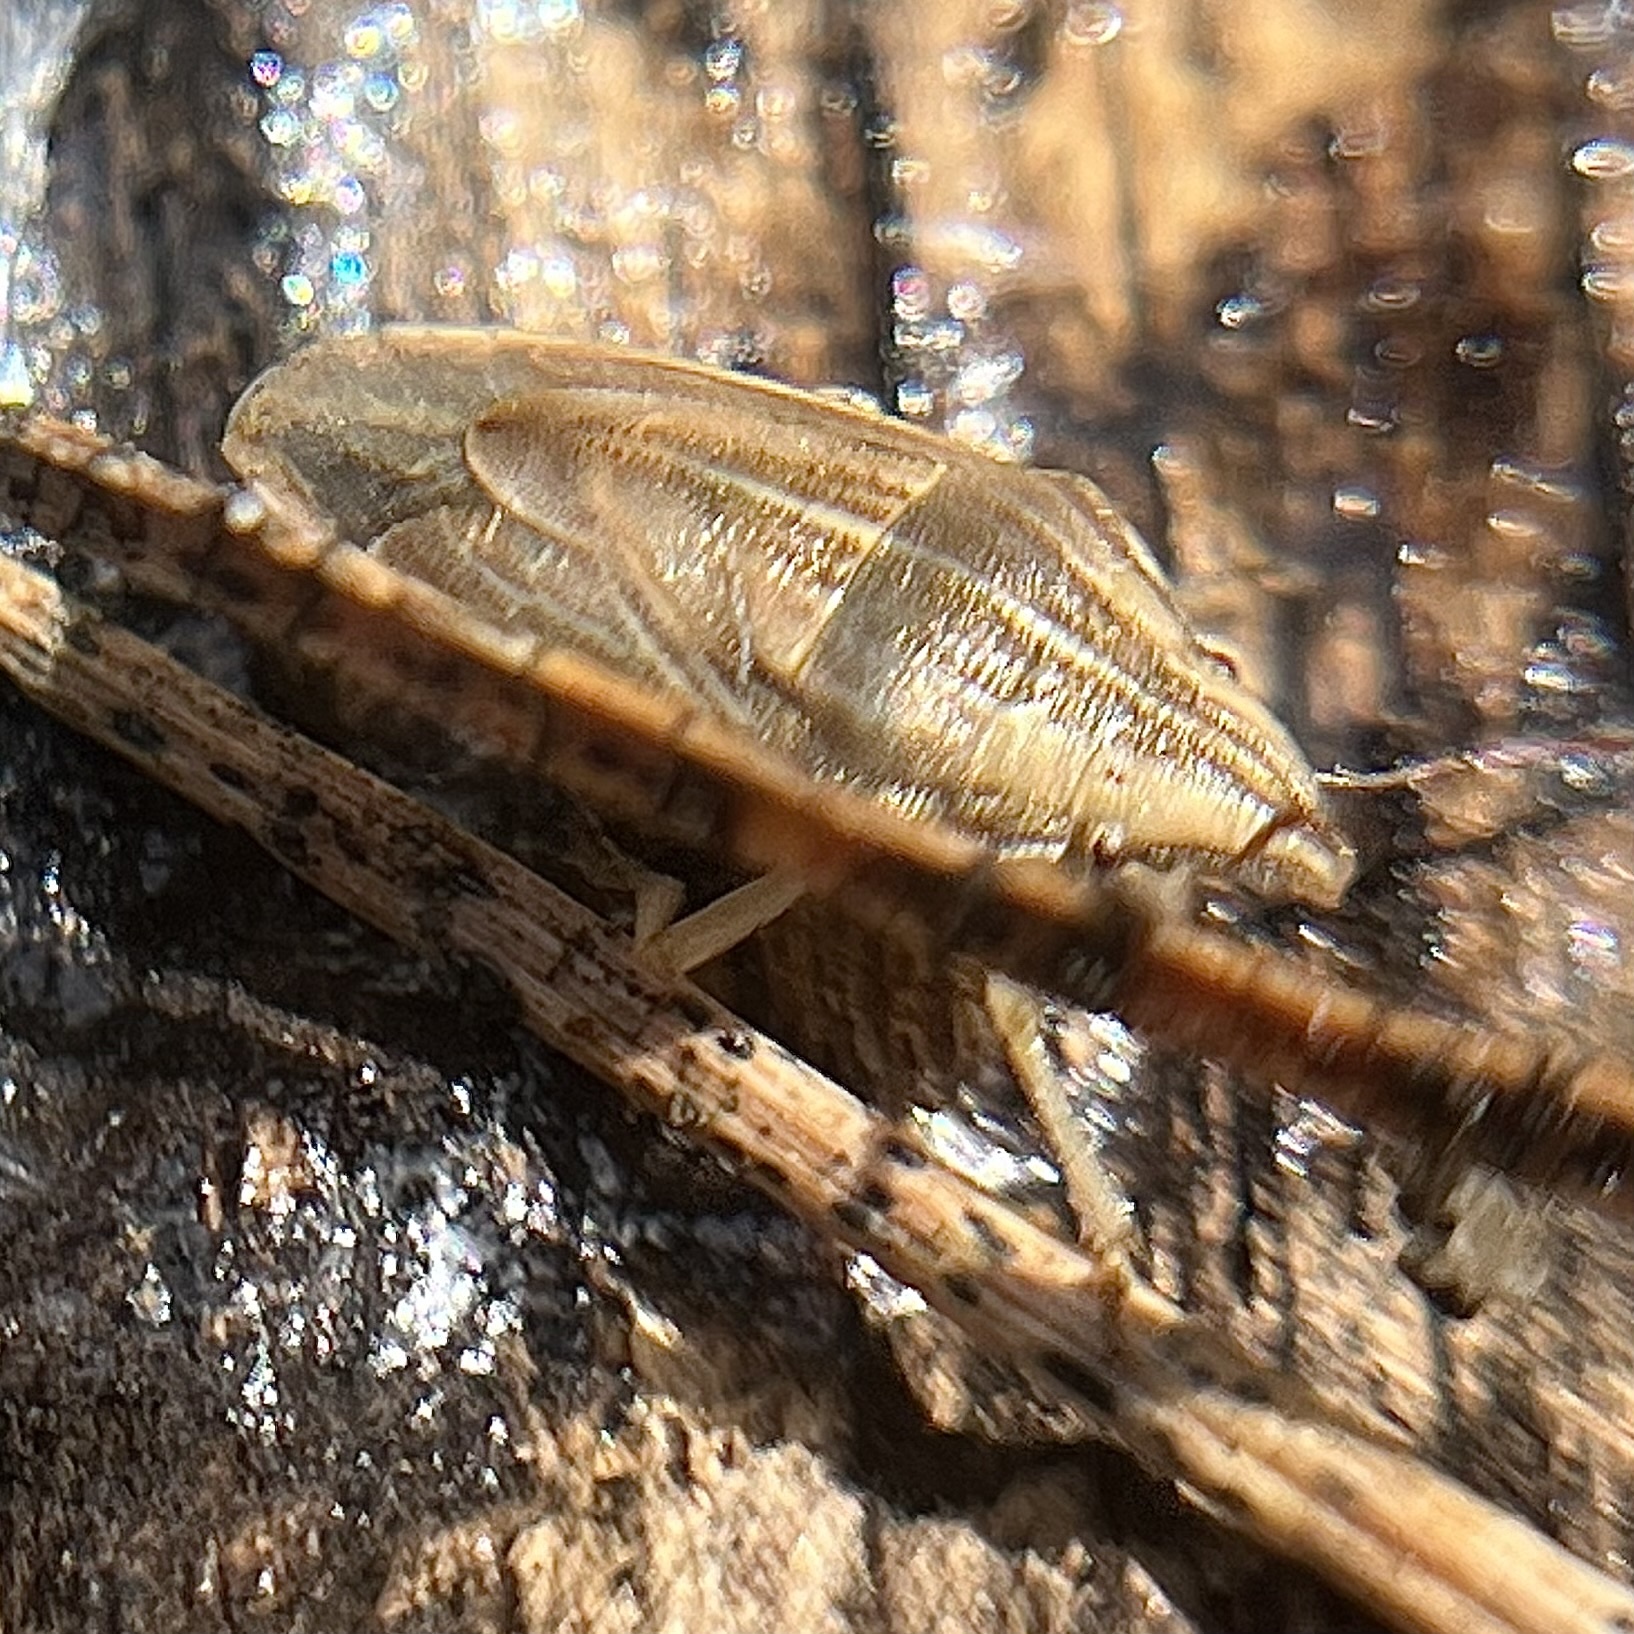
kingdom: Animalia
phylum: Arthropoda
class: Insecta
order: Hemiptera
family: Pentatomidae
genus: Aelia
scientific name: Aelia acuminata
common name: Bishop's mitre
